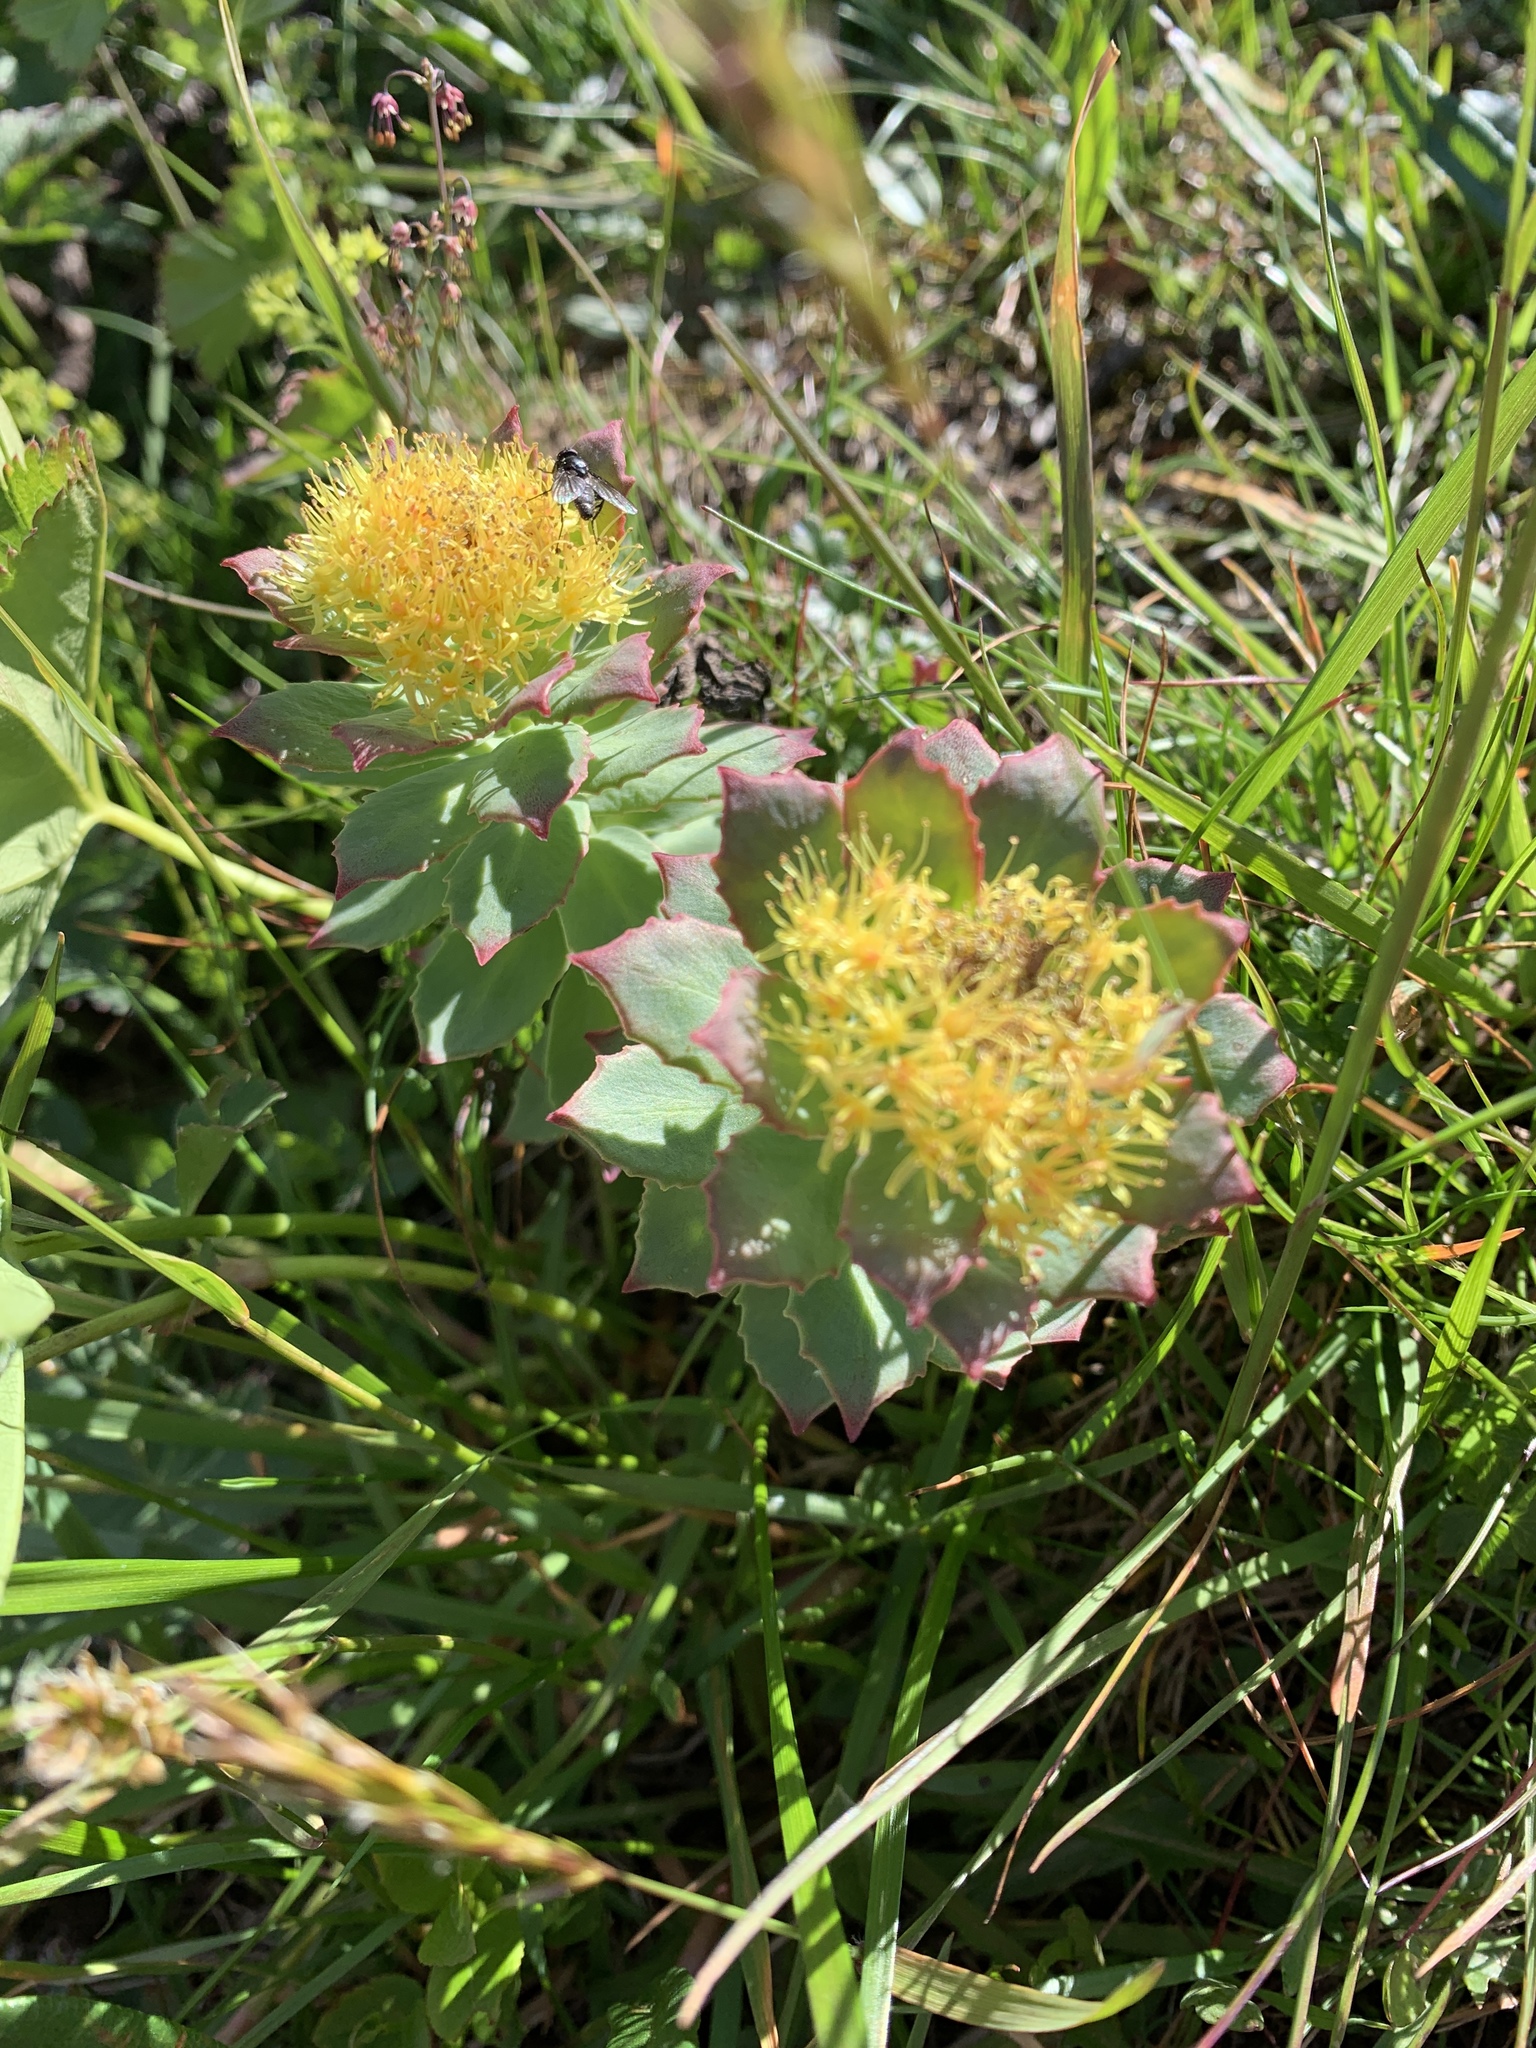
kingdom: Plantae
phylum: Tracheophyta
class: Magnoliopsida
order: Saxifragales
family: Crassulaceae
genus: Rhodiola
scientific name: Rhodiola rosea
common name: Roseroot
